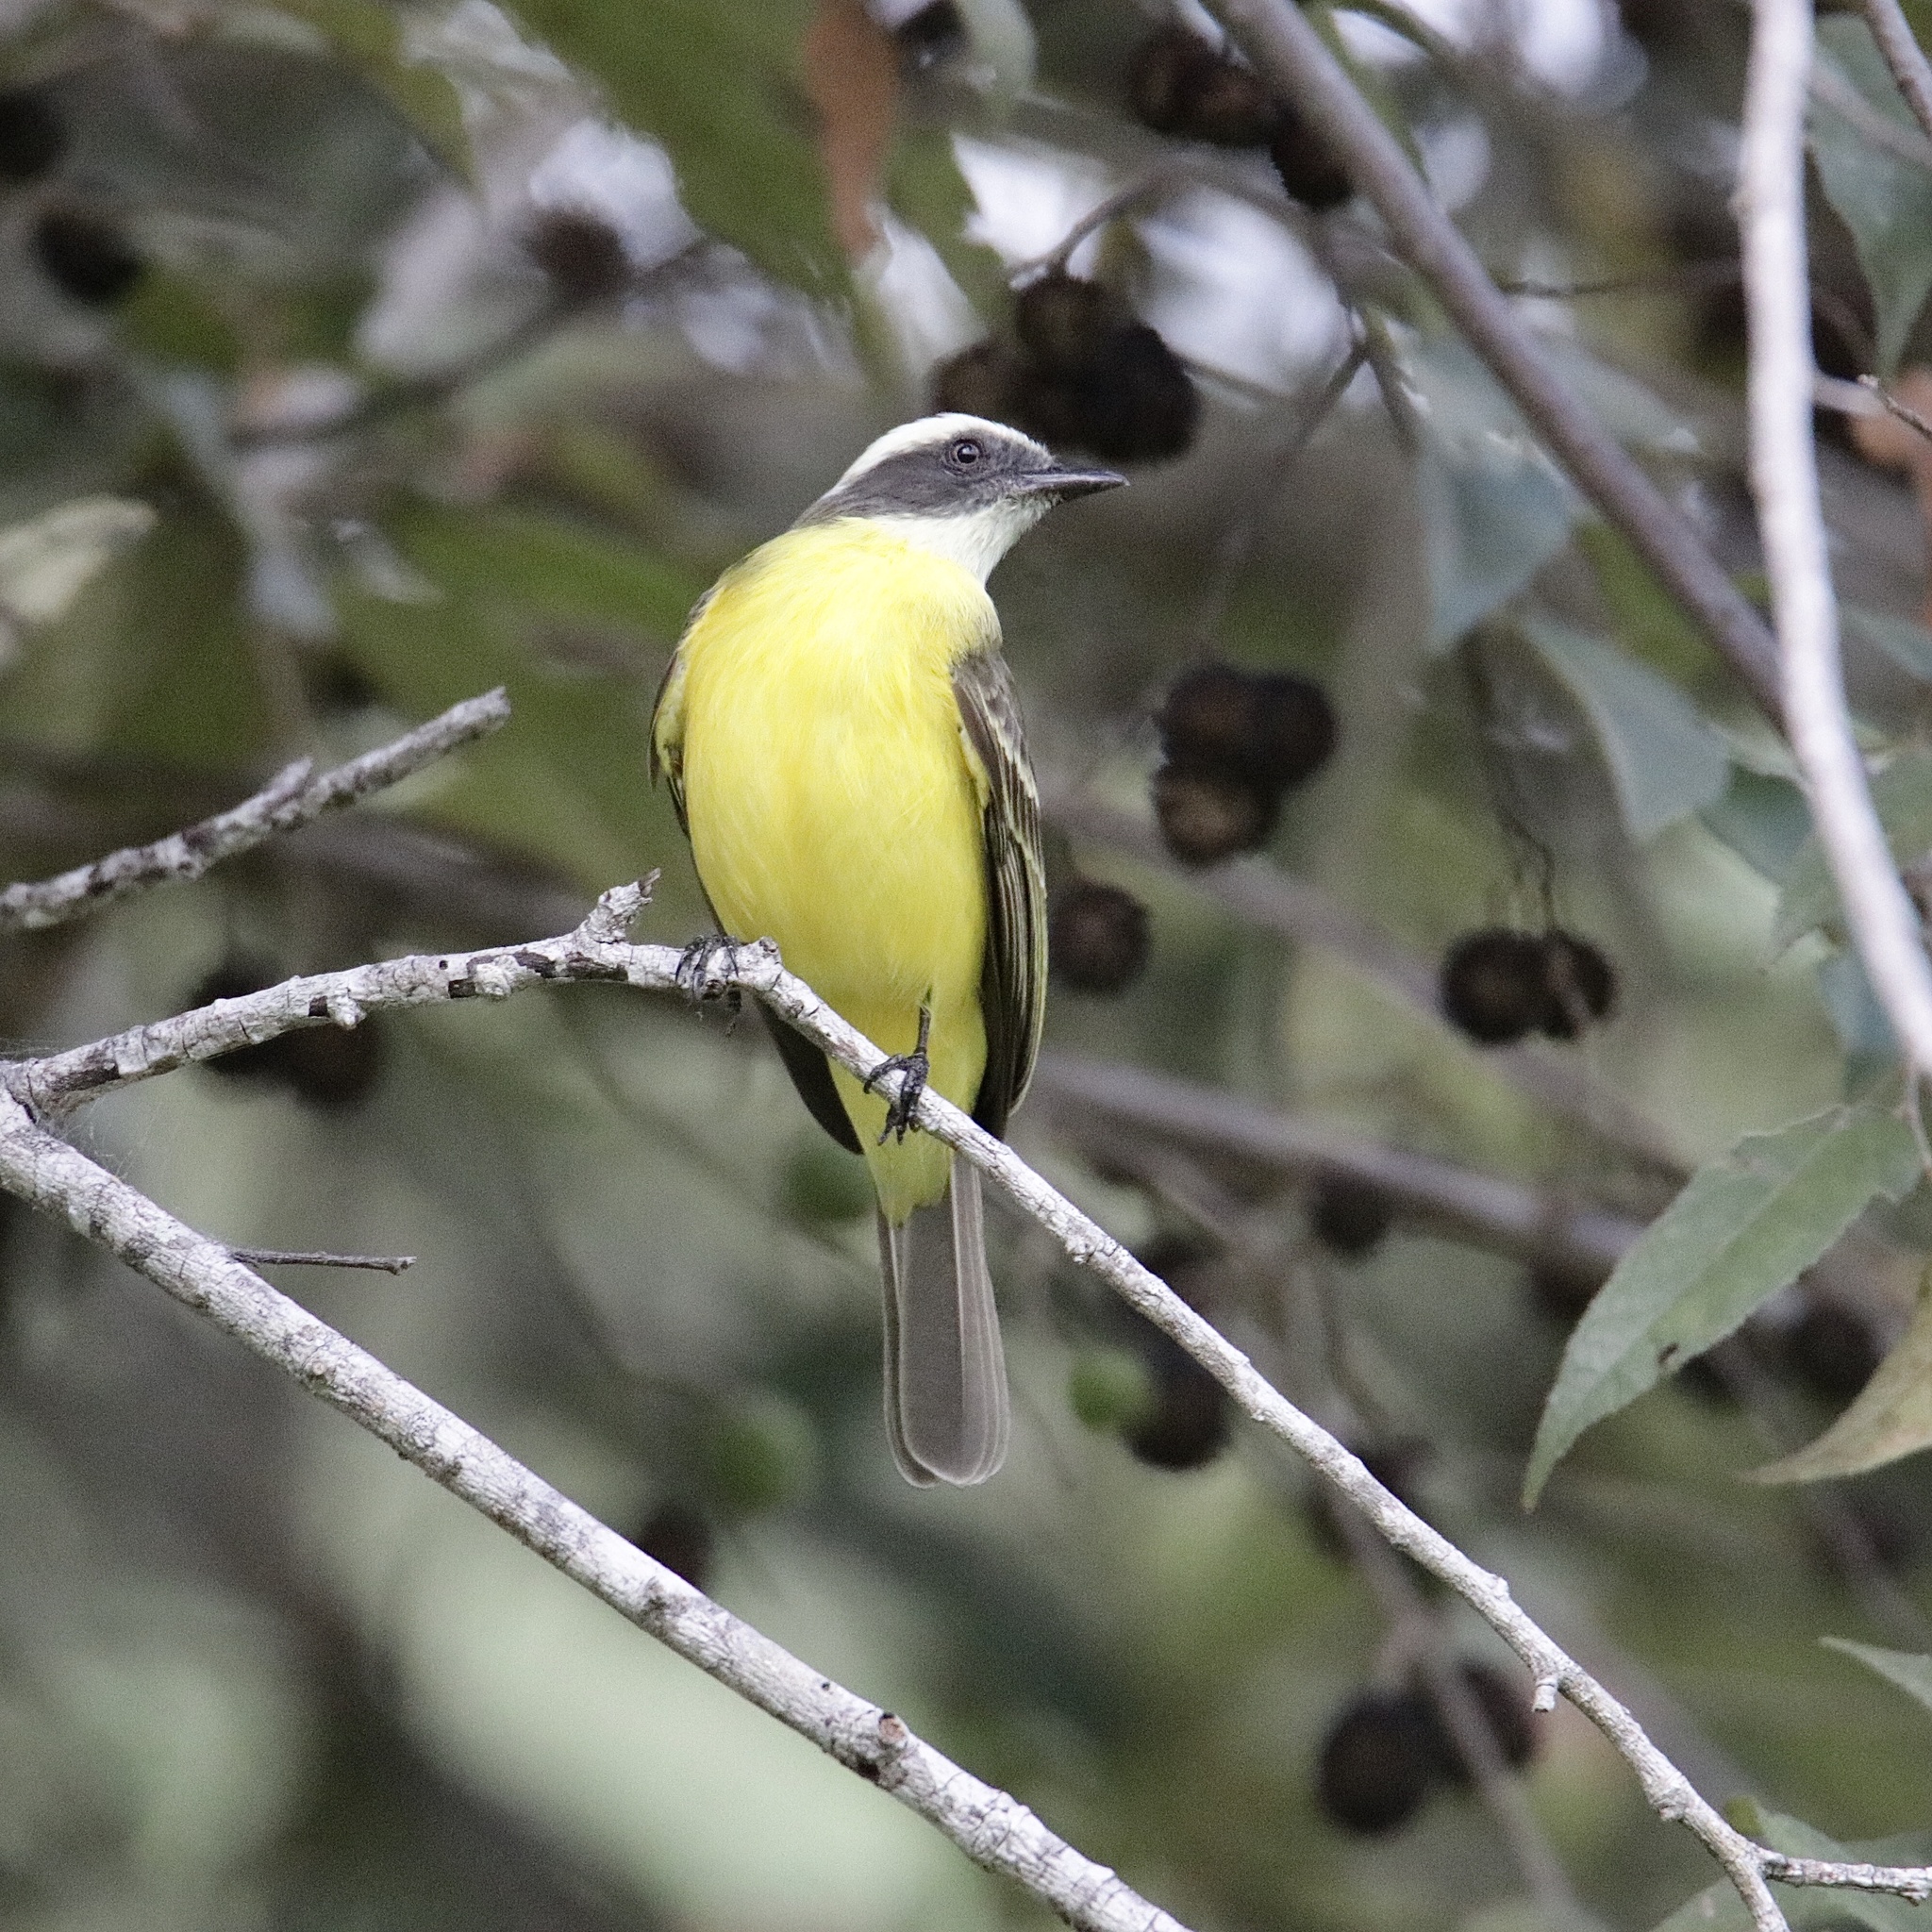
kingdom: Animalia
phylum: Chordata
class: Aves
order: Passeriformes
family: Tyrannidae
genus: Myiozetetes
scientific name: Myiozetetes similis
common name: Social flycatcher
